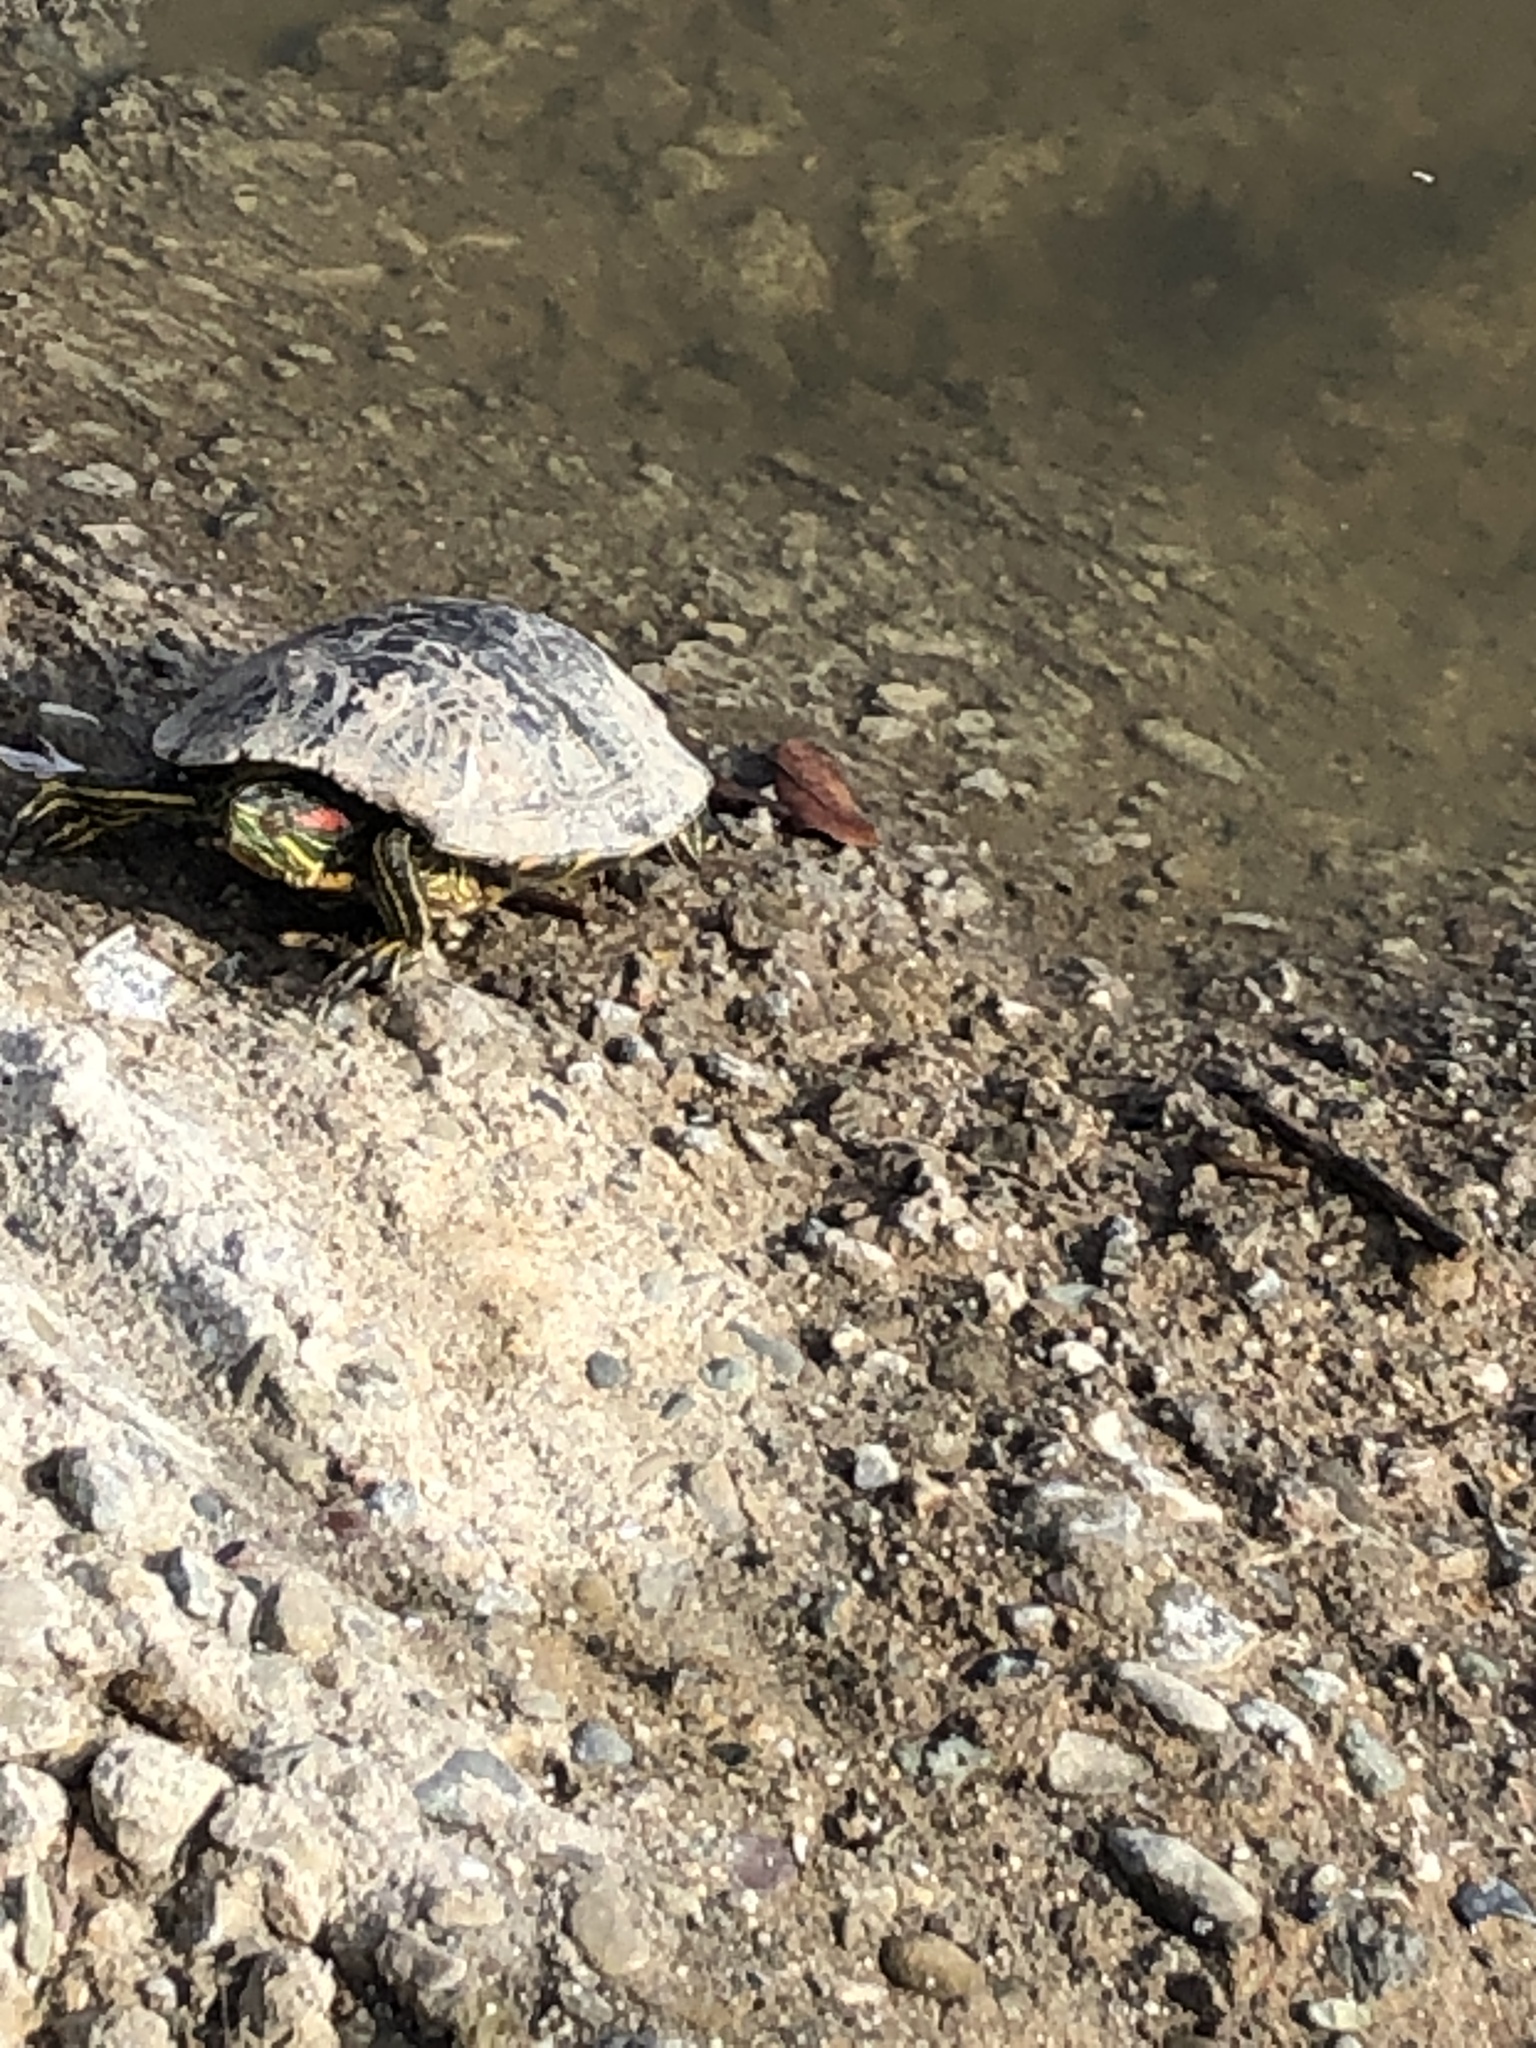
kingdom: Animalia
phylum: Chordata
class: Testudines
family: Emydidae
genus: Trachemys
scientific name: Trachemys scripta
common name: Slider
